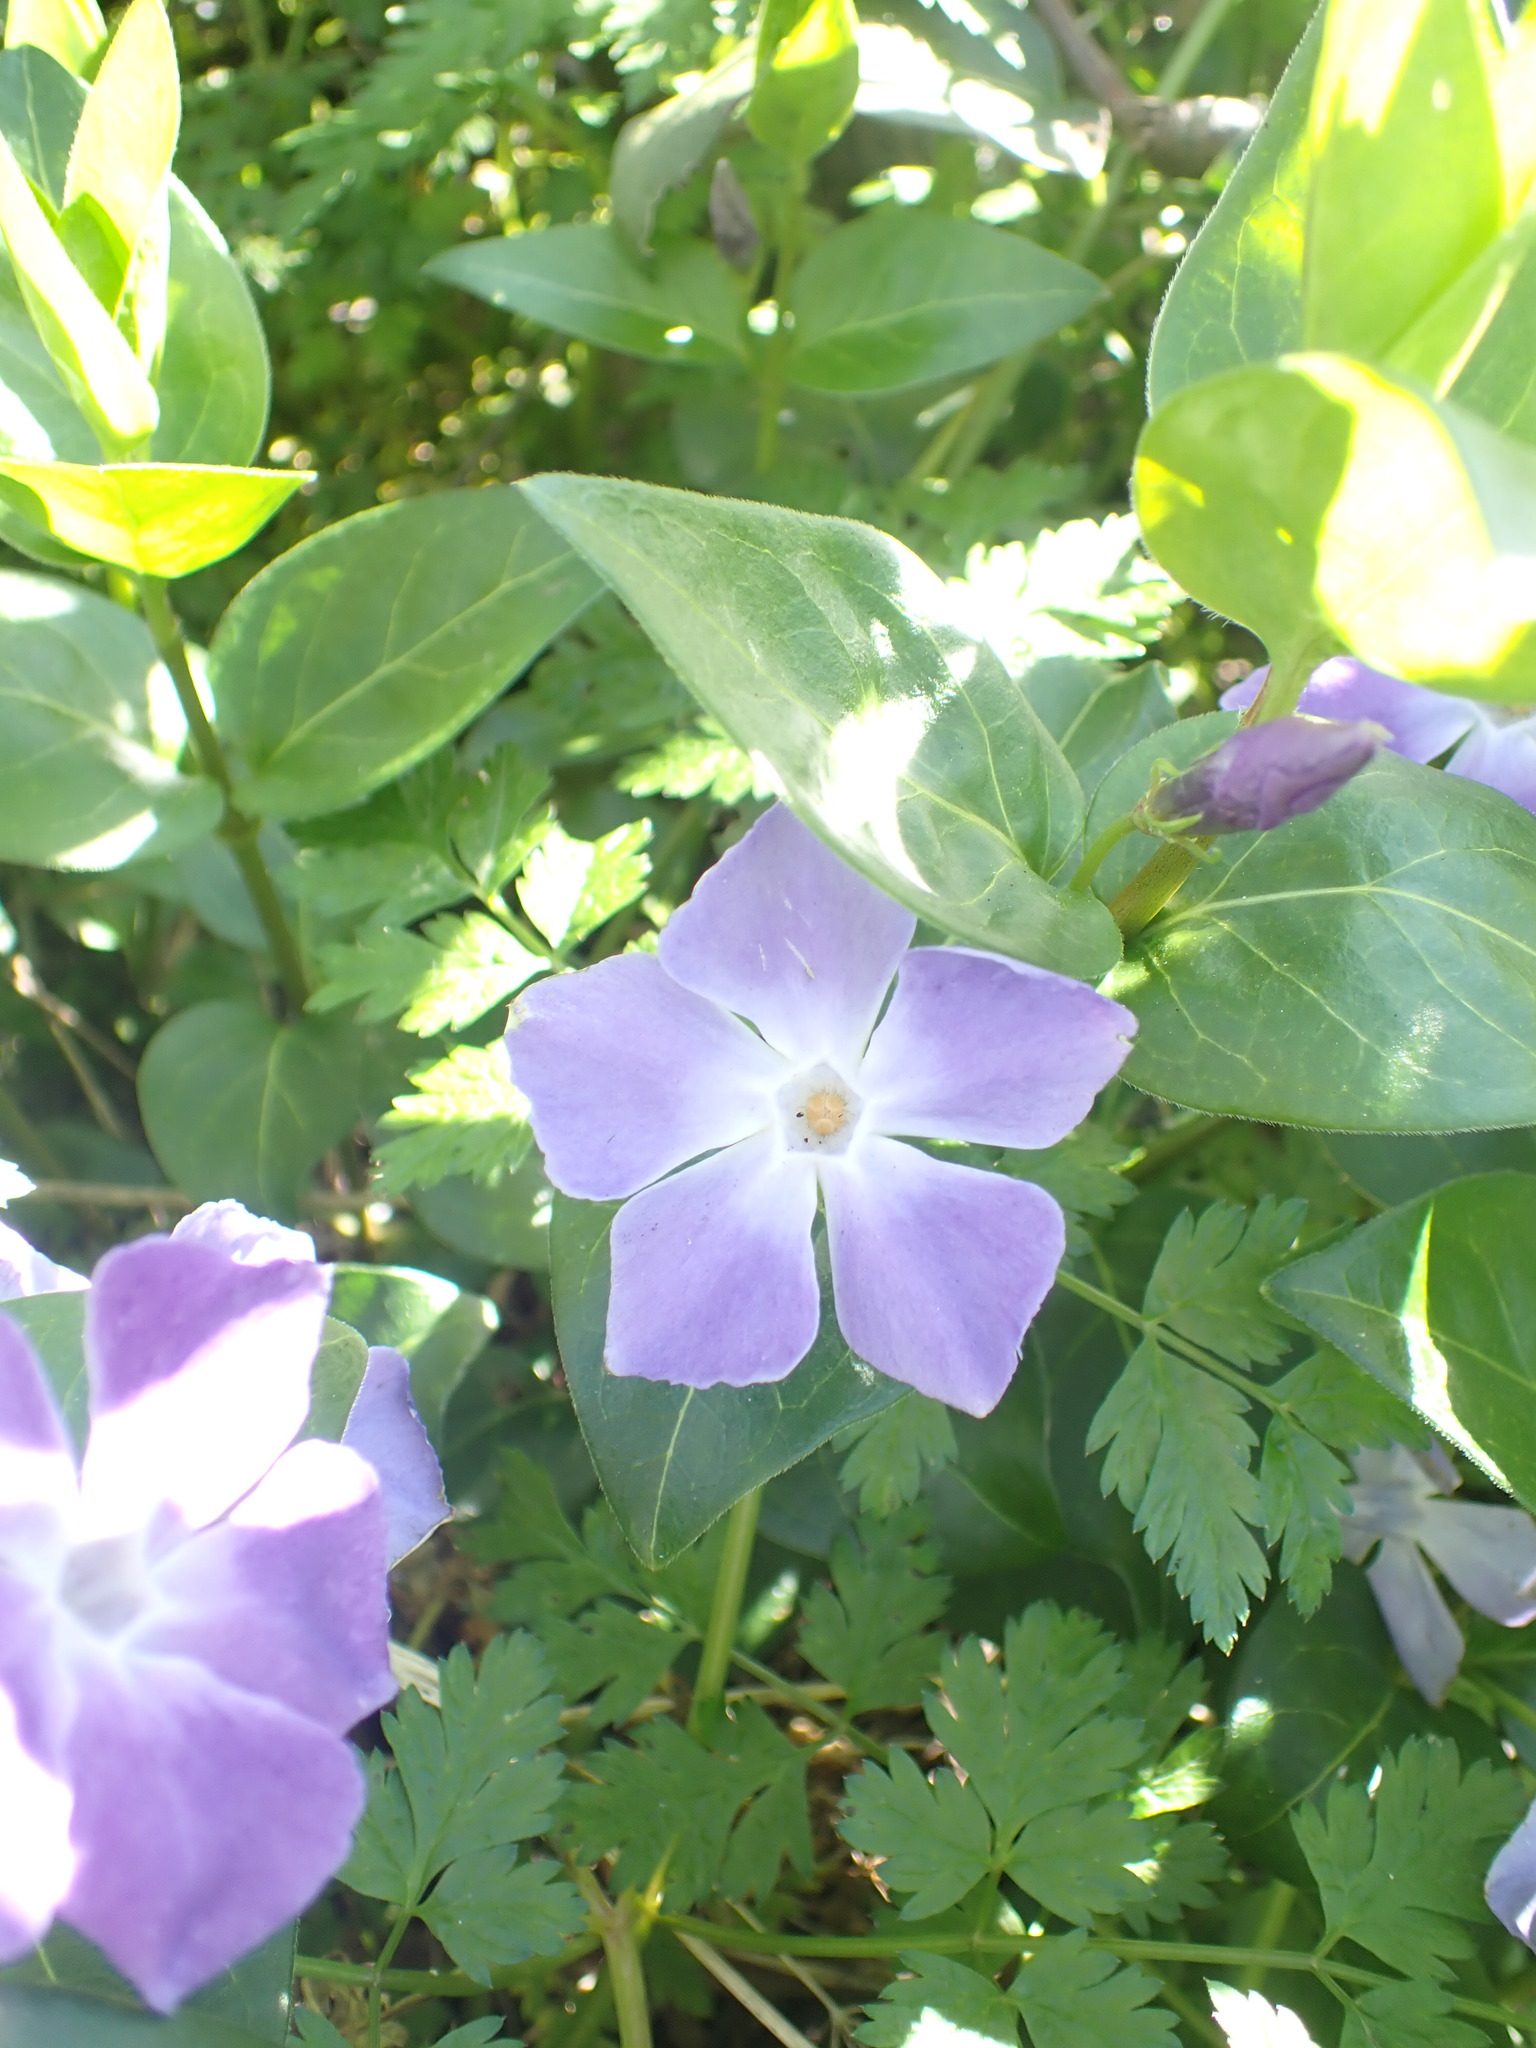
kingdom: Plantae
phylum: Tracheophyta
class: Magnoliopsida
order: Gentianales
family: Apocynaceae
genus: Vinca
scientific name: Vinca major
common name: Greater periwinkle
